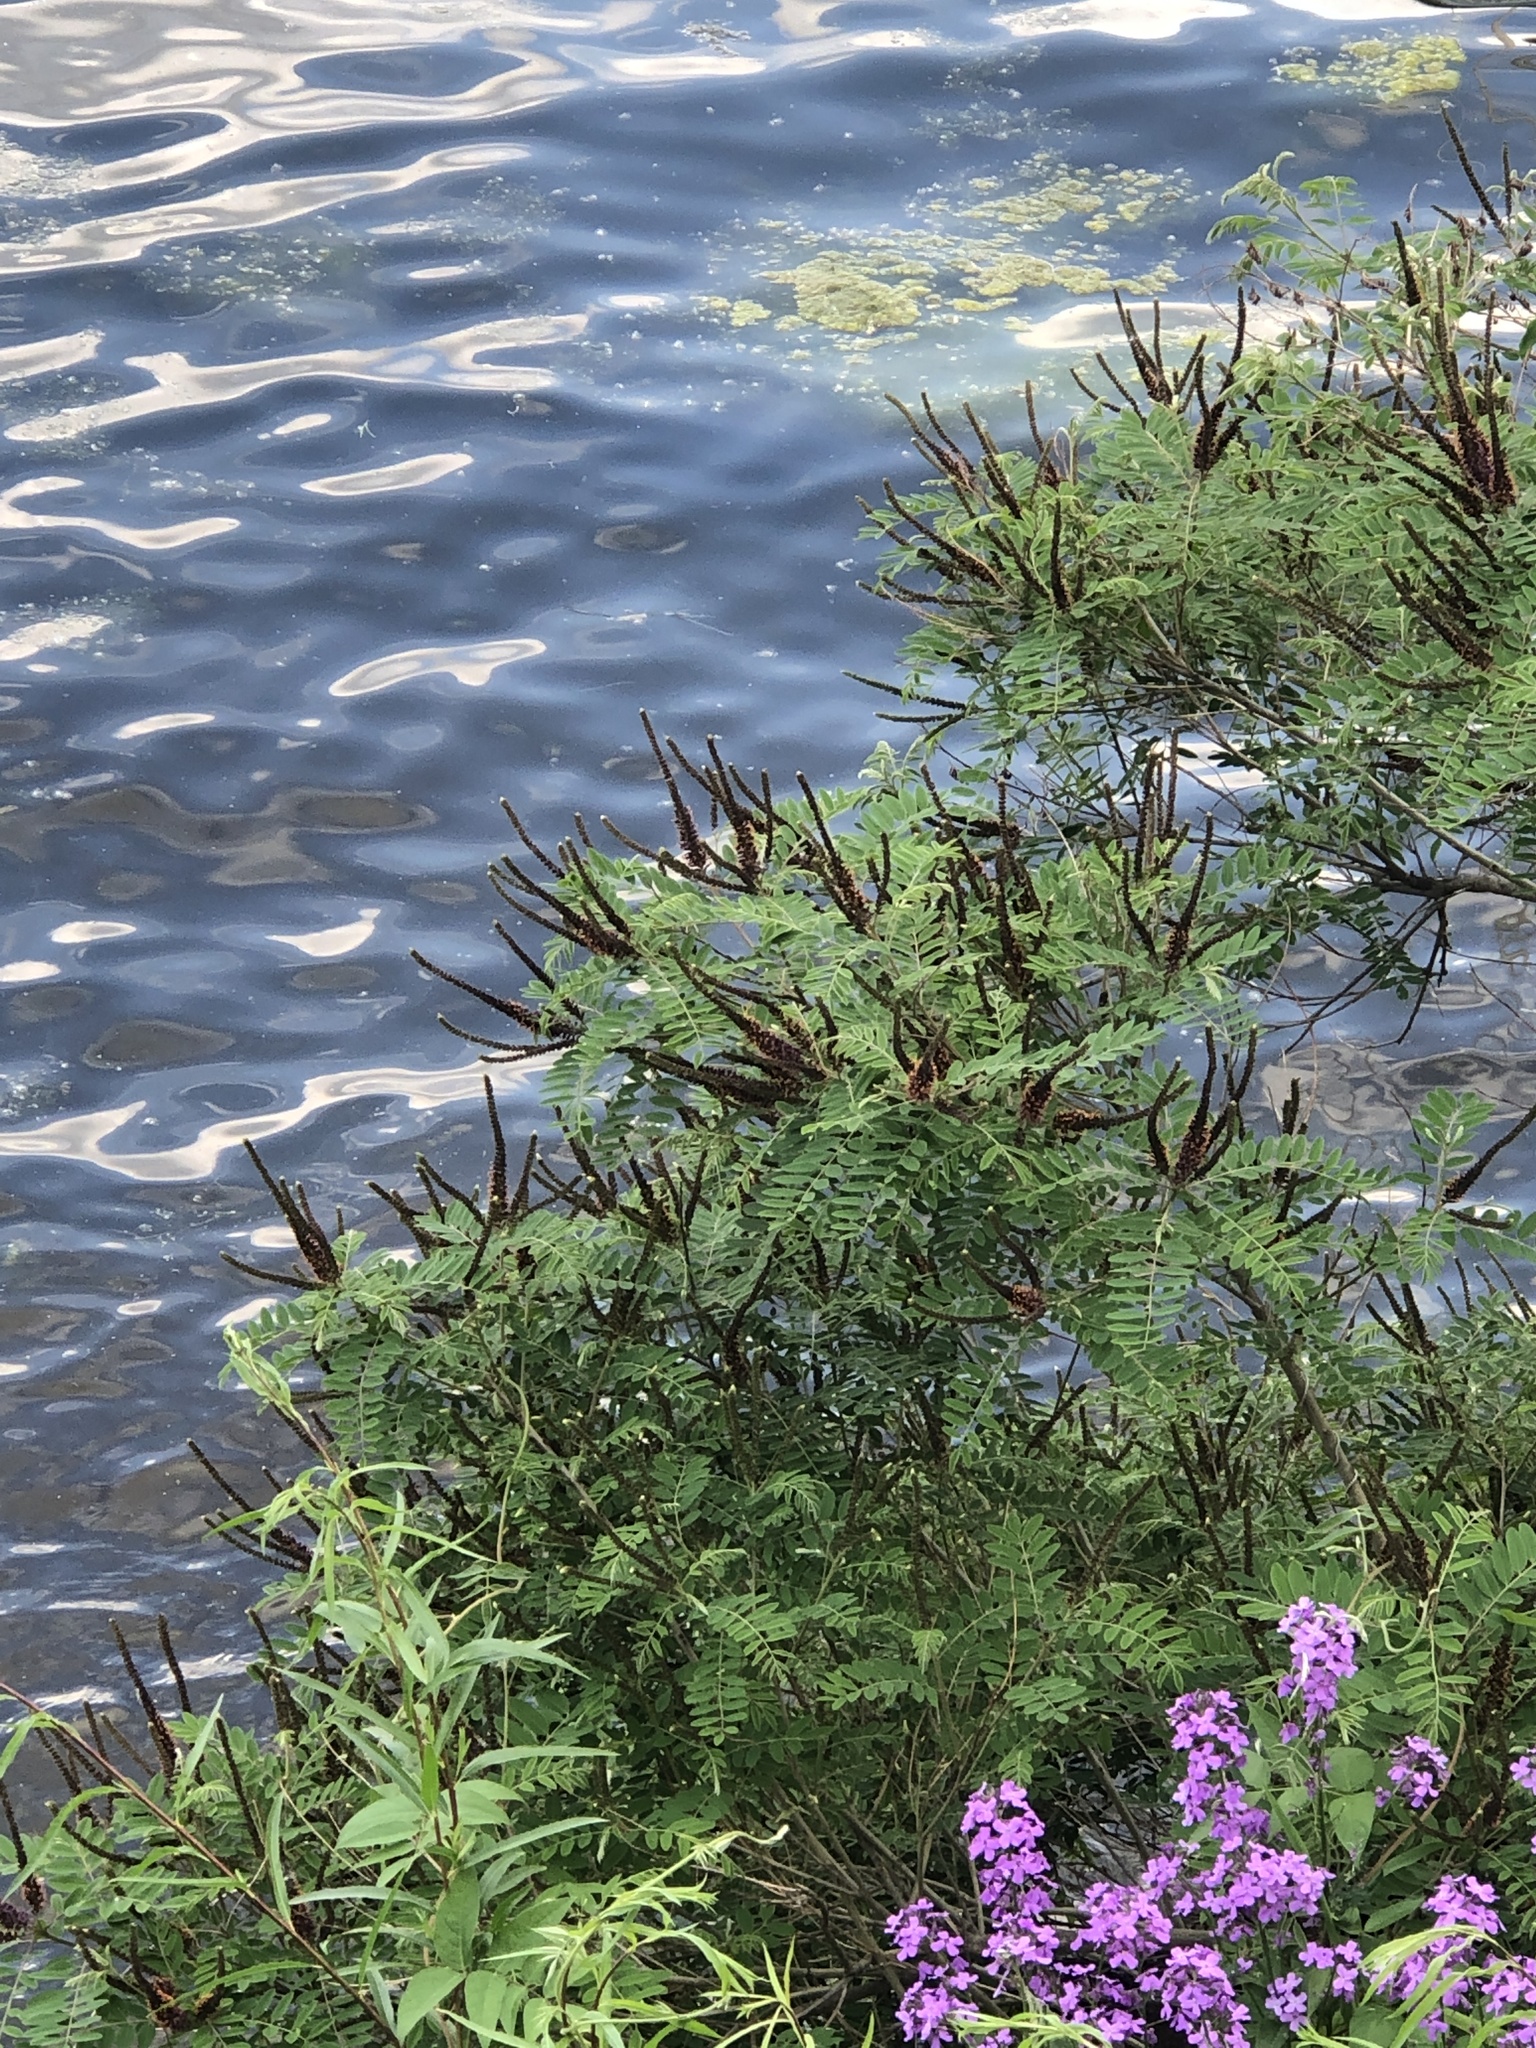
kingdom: Plantae
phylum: Tracheophyta
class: Magnoliopsida
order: Fabales
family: Fabaceae
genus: Amorpha
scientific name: Amorpha fruticosa
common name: False indigo
